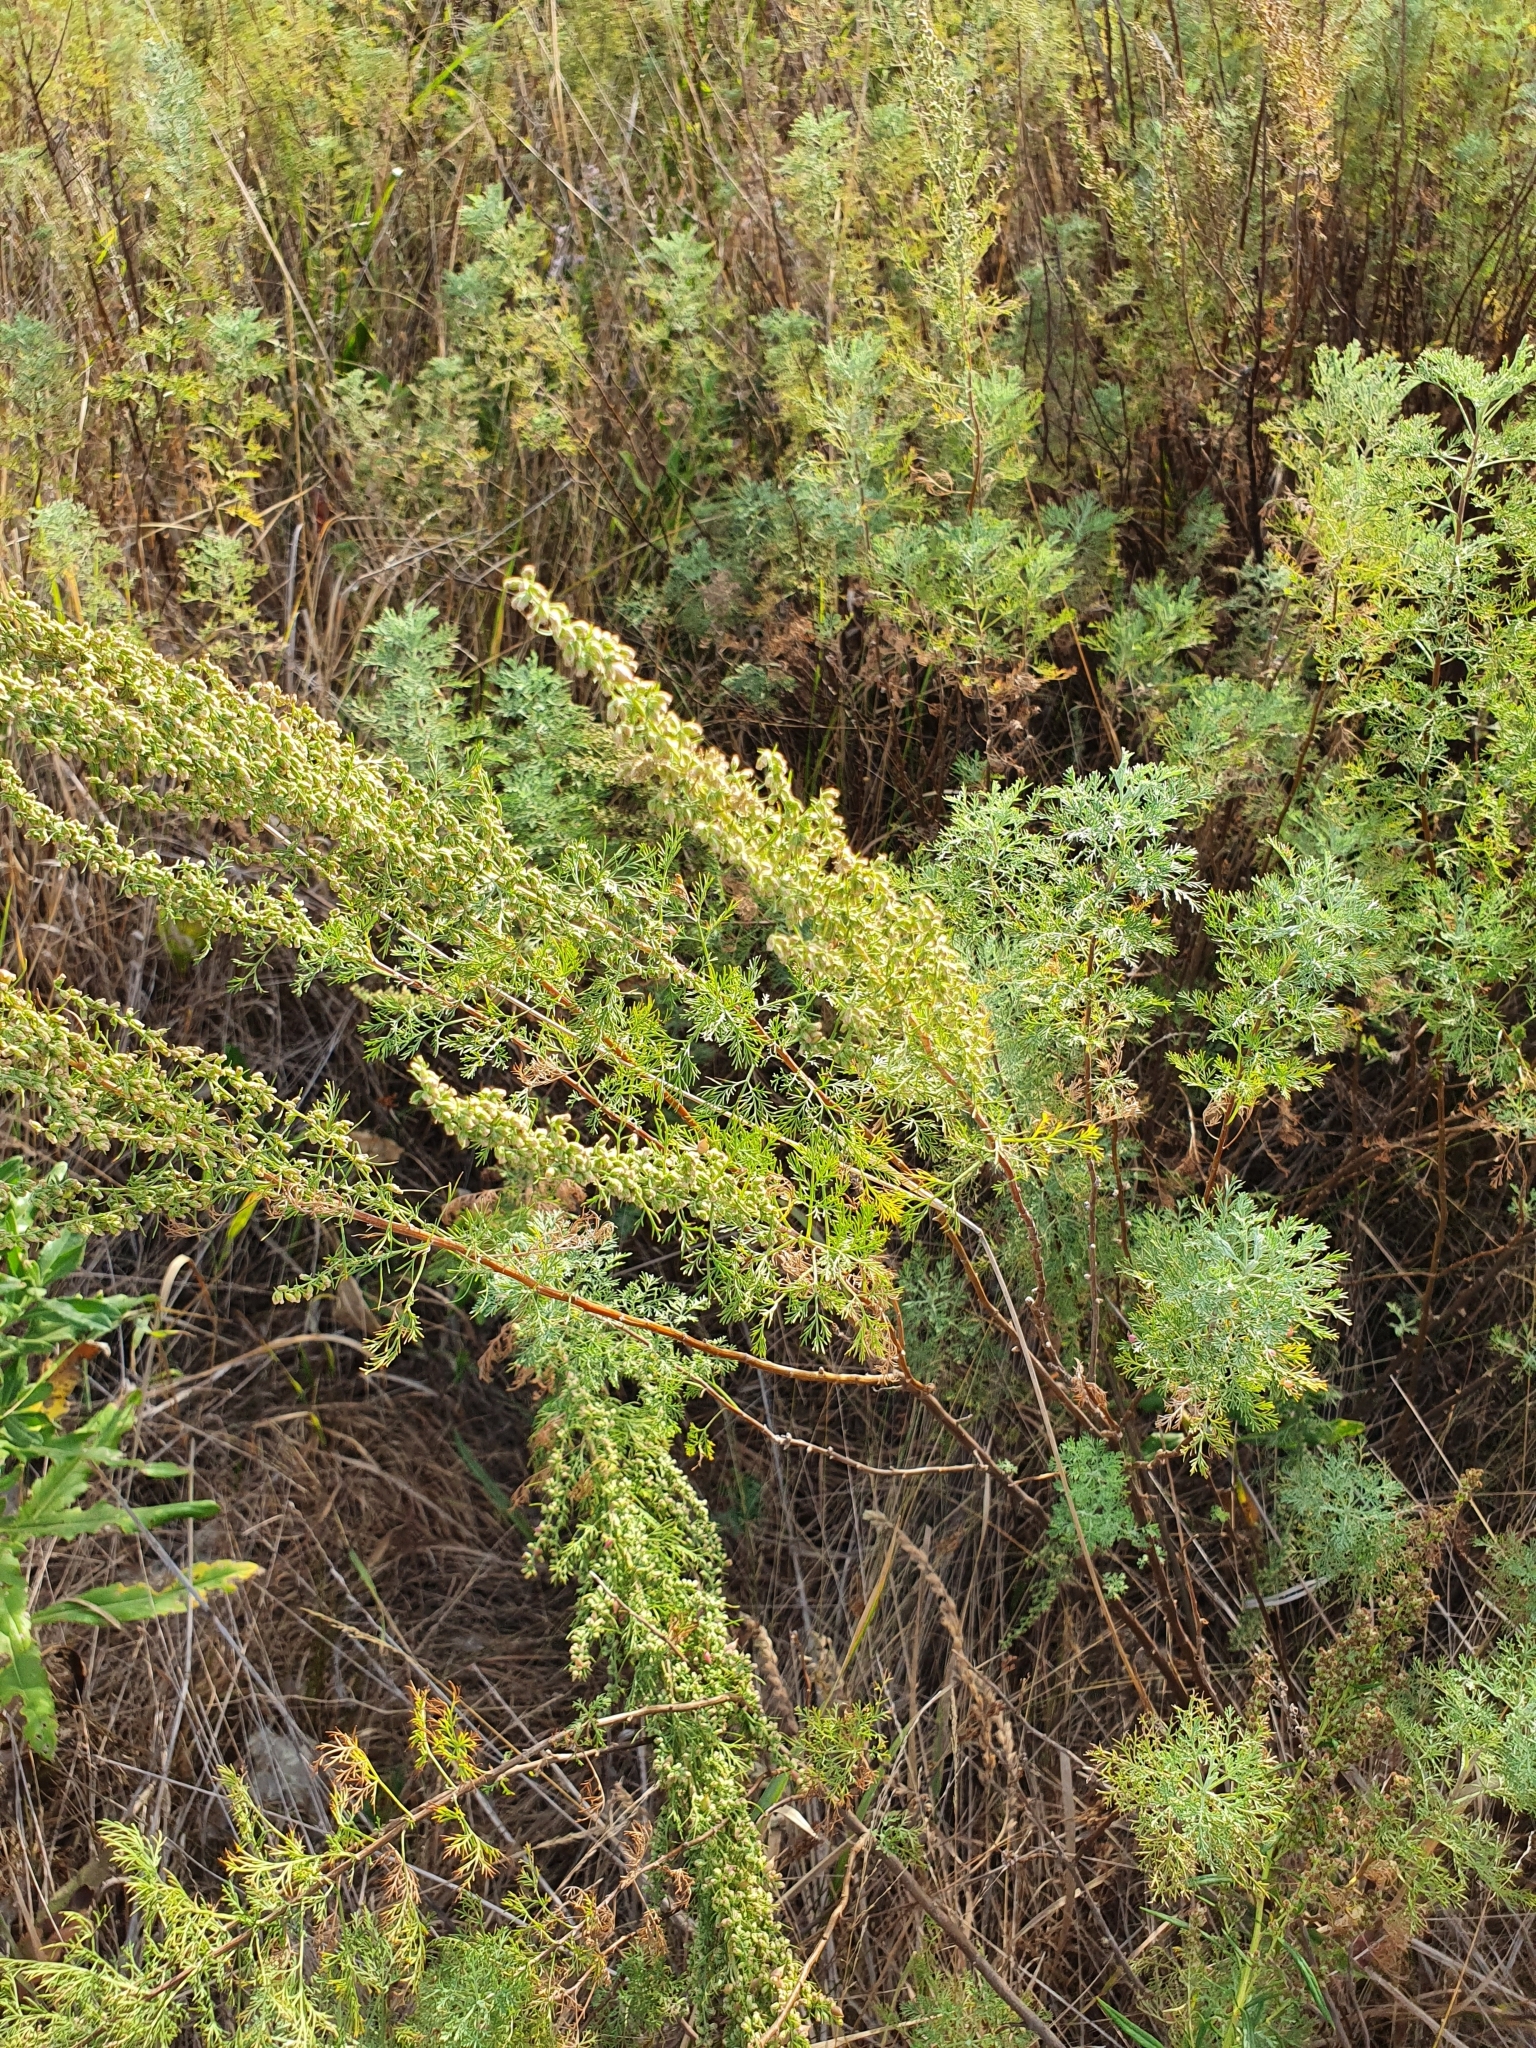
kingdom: Plantae
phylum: Tracheophyta
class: Magnoliopsida
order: Asterales
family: Asteraceae
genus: Artemisia
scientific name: Artemisia abrotanum
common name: Southernwood
